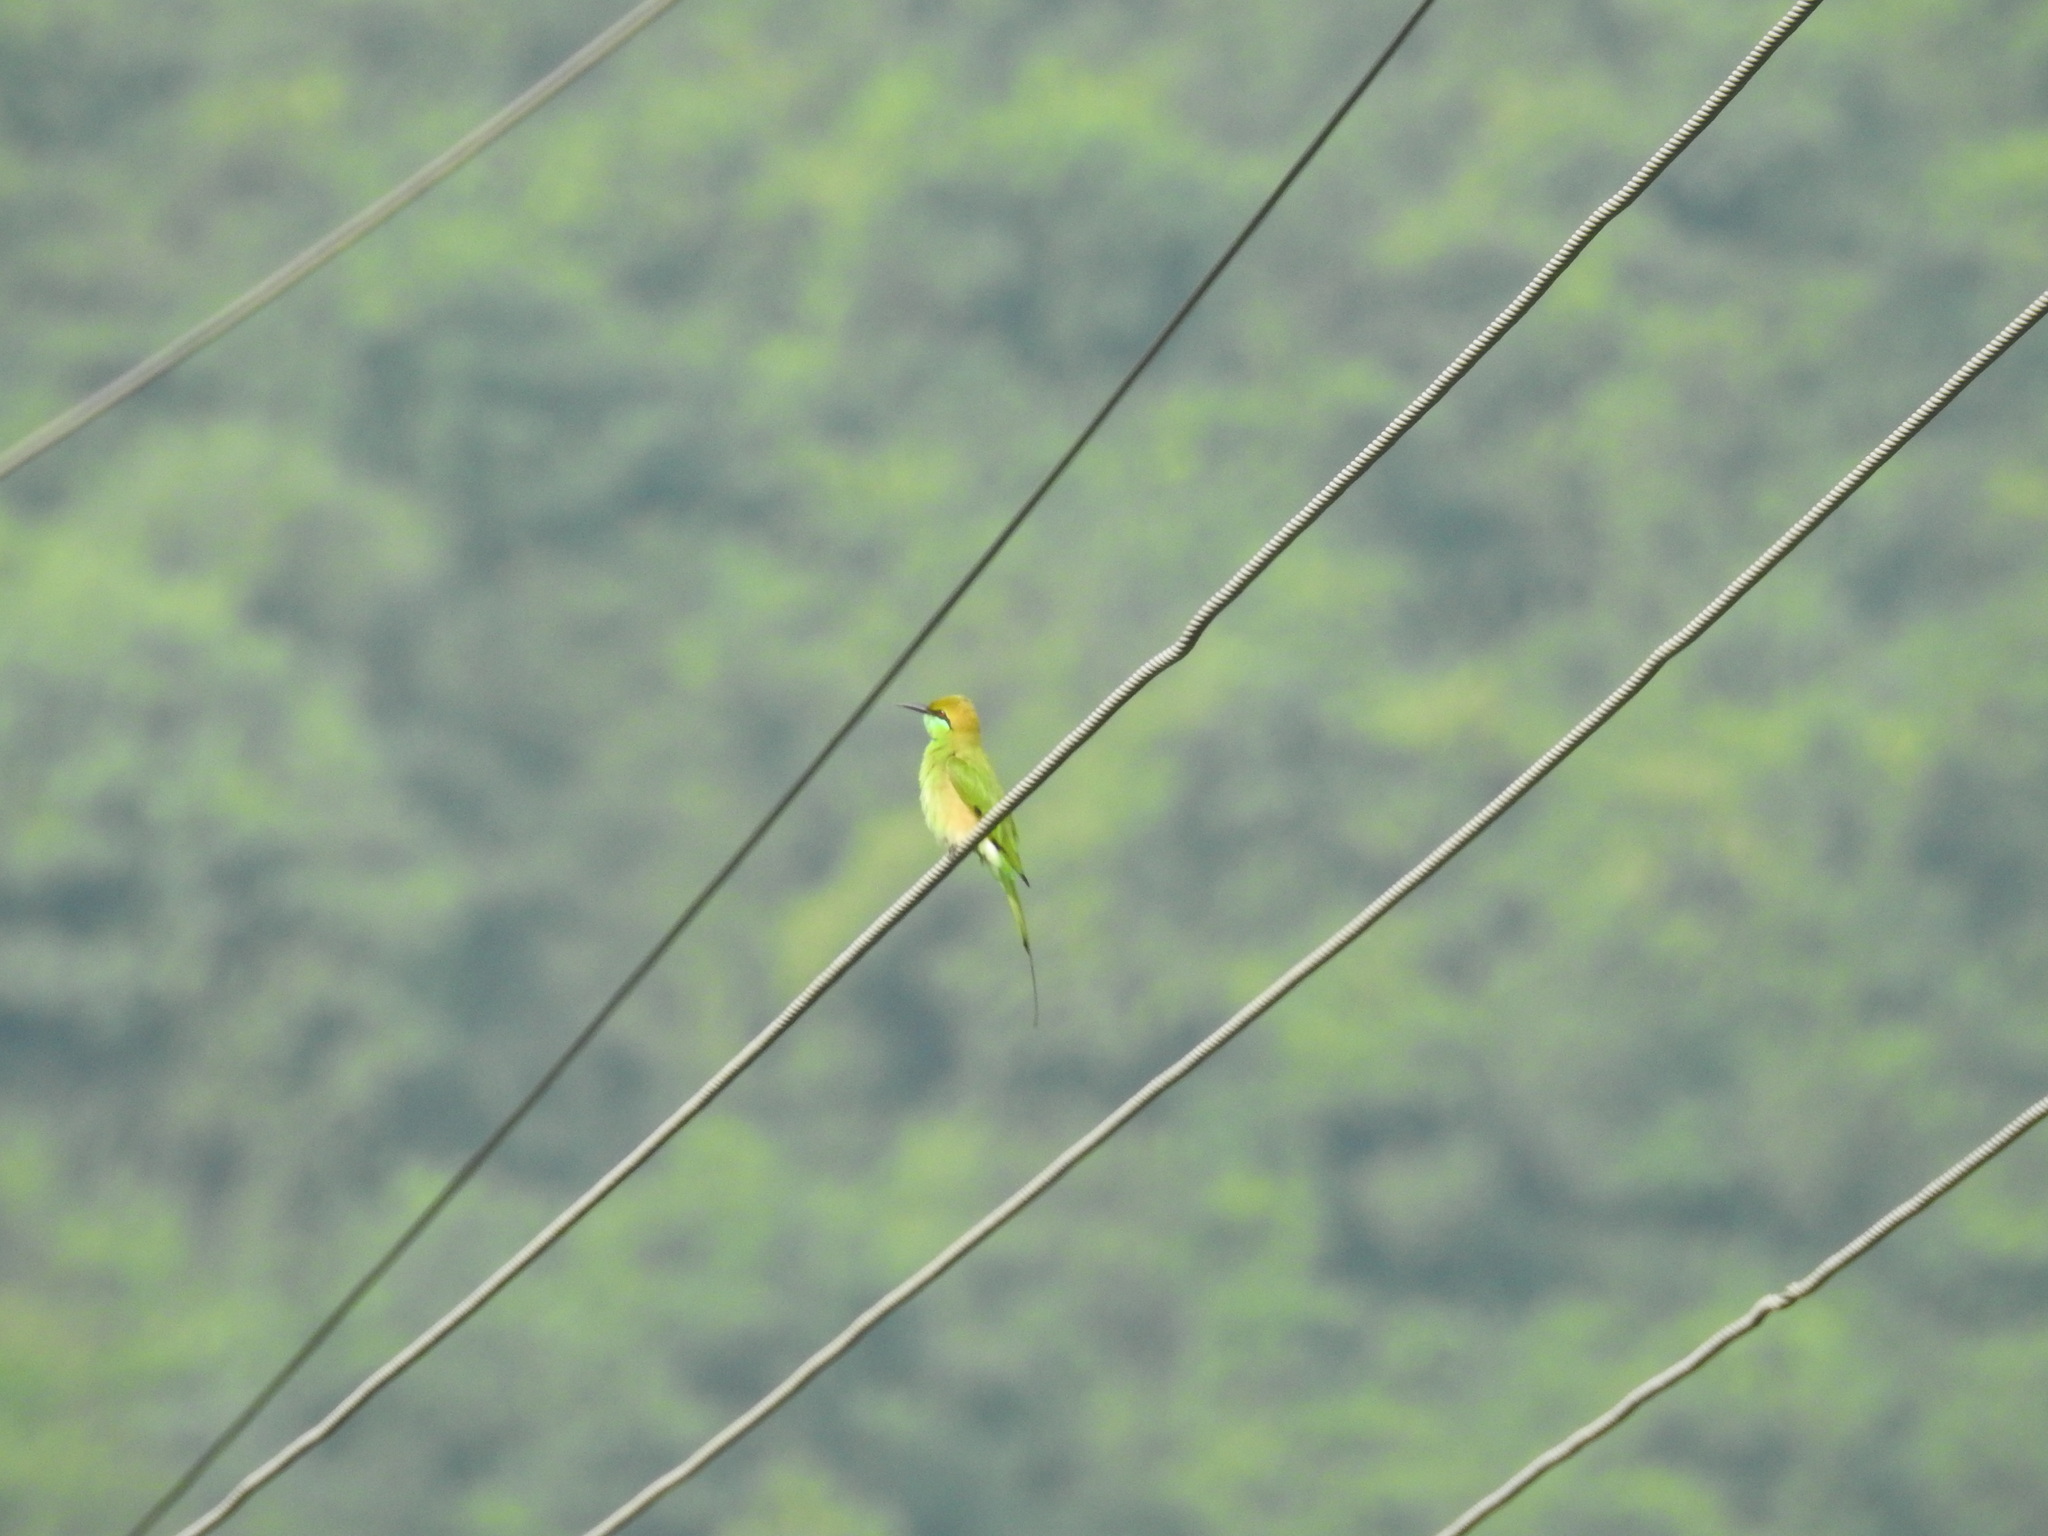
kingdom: Animalia
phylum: Chordata
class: Aves
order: Coraciiformes
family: Meropidae
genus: Merops
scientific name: Merops orientalis
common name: Green bee-eater
